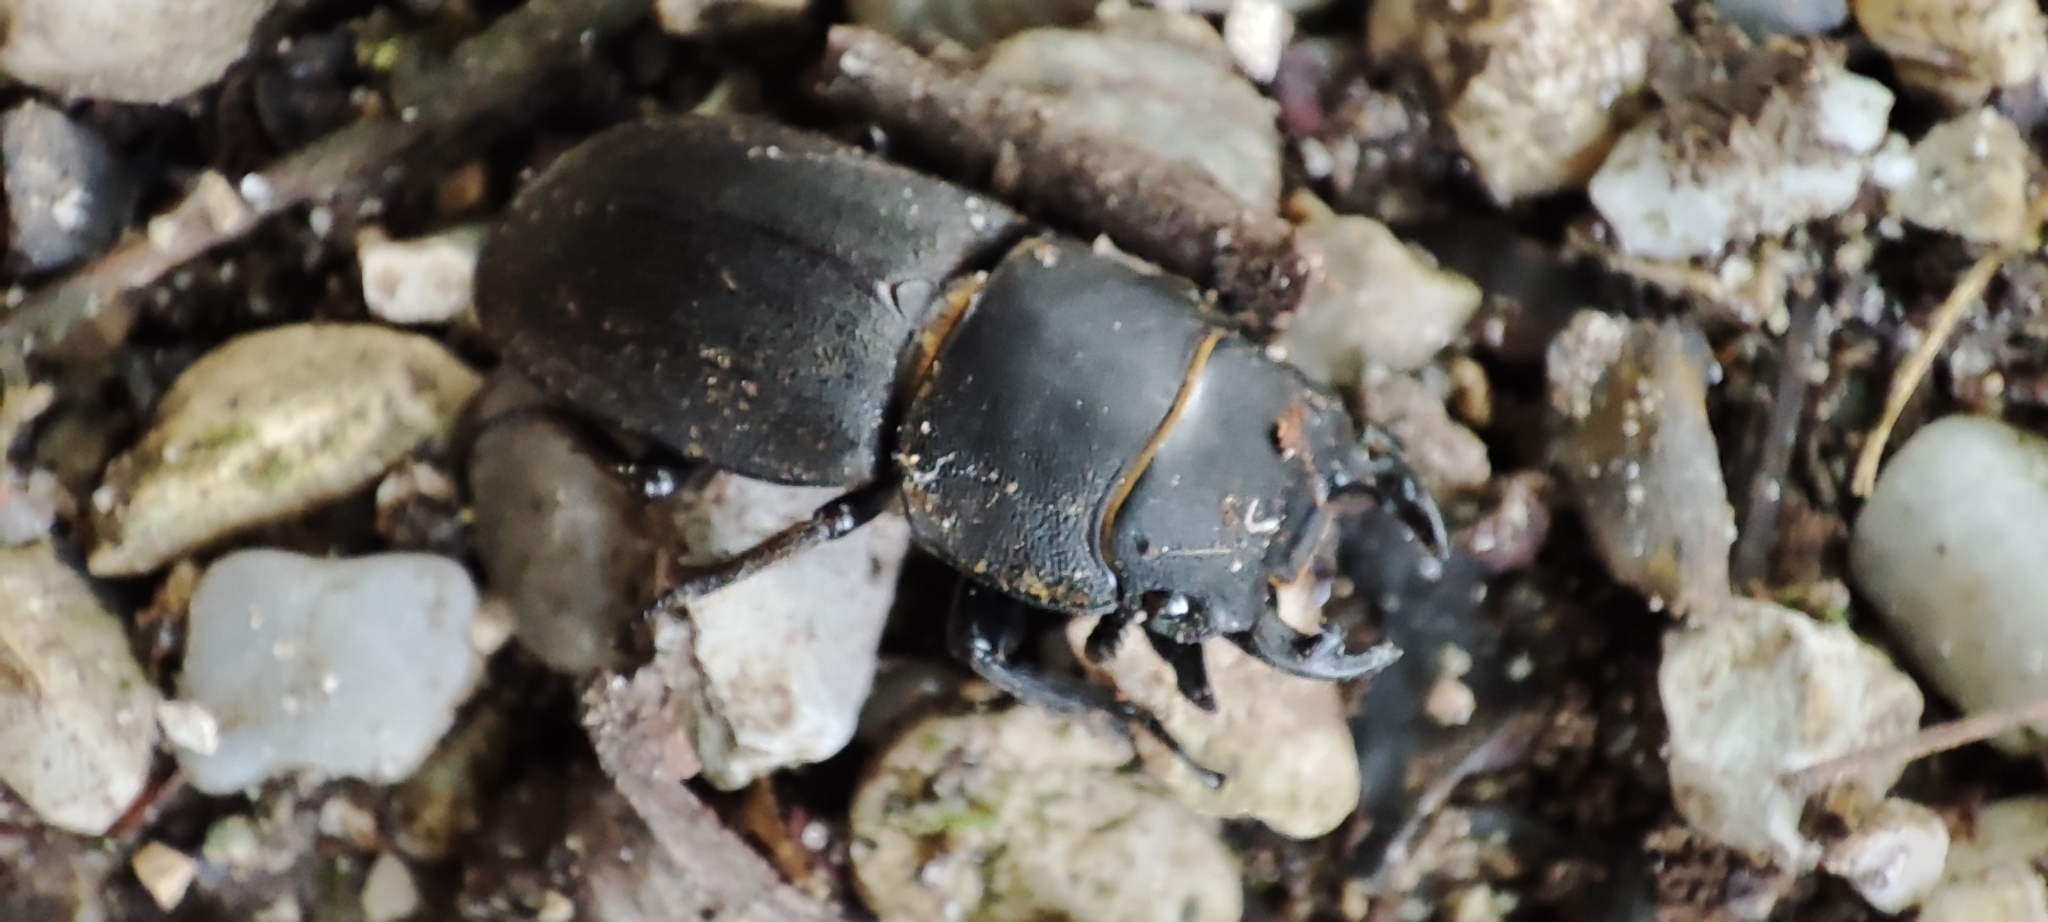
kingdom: Animalia
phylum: Arthropoda
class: Insecta
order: Coleoptera
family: Lucanidae
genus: Dorcus
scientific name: Dorcus parallelipipedus
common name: Lesser stag beetle
